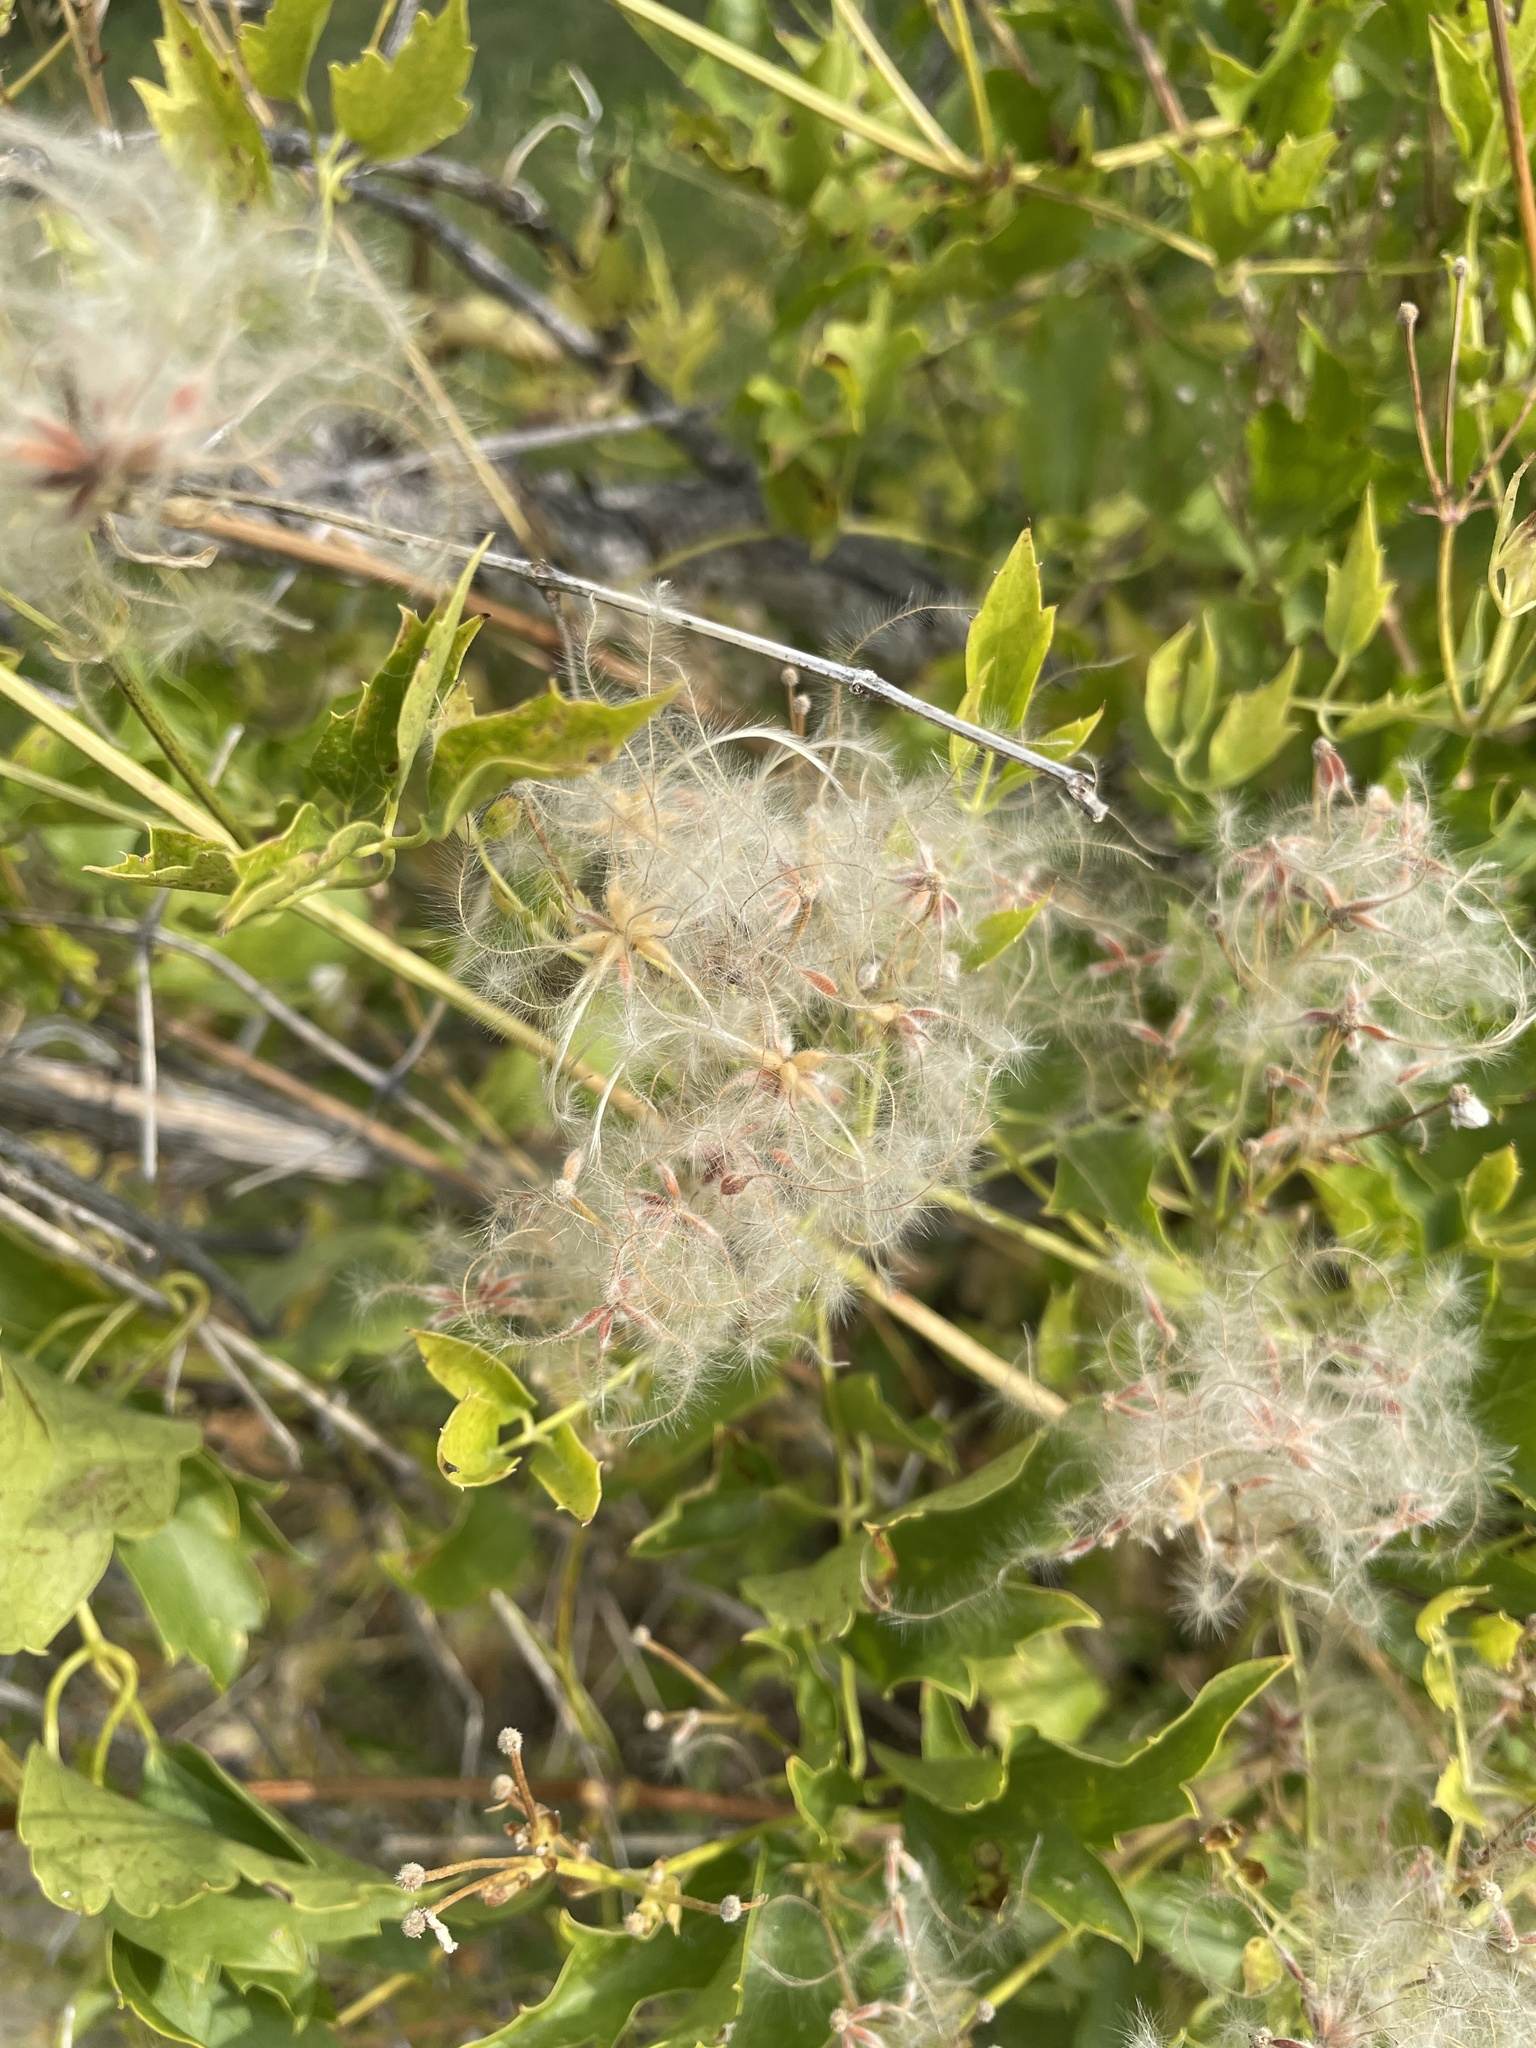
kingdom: Plantae
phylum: Tracheophyta
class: Magnoliopsida
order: Ranunculales
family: Ranunculaceae
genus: Clematis
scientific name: Clematis ligusticifolia
